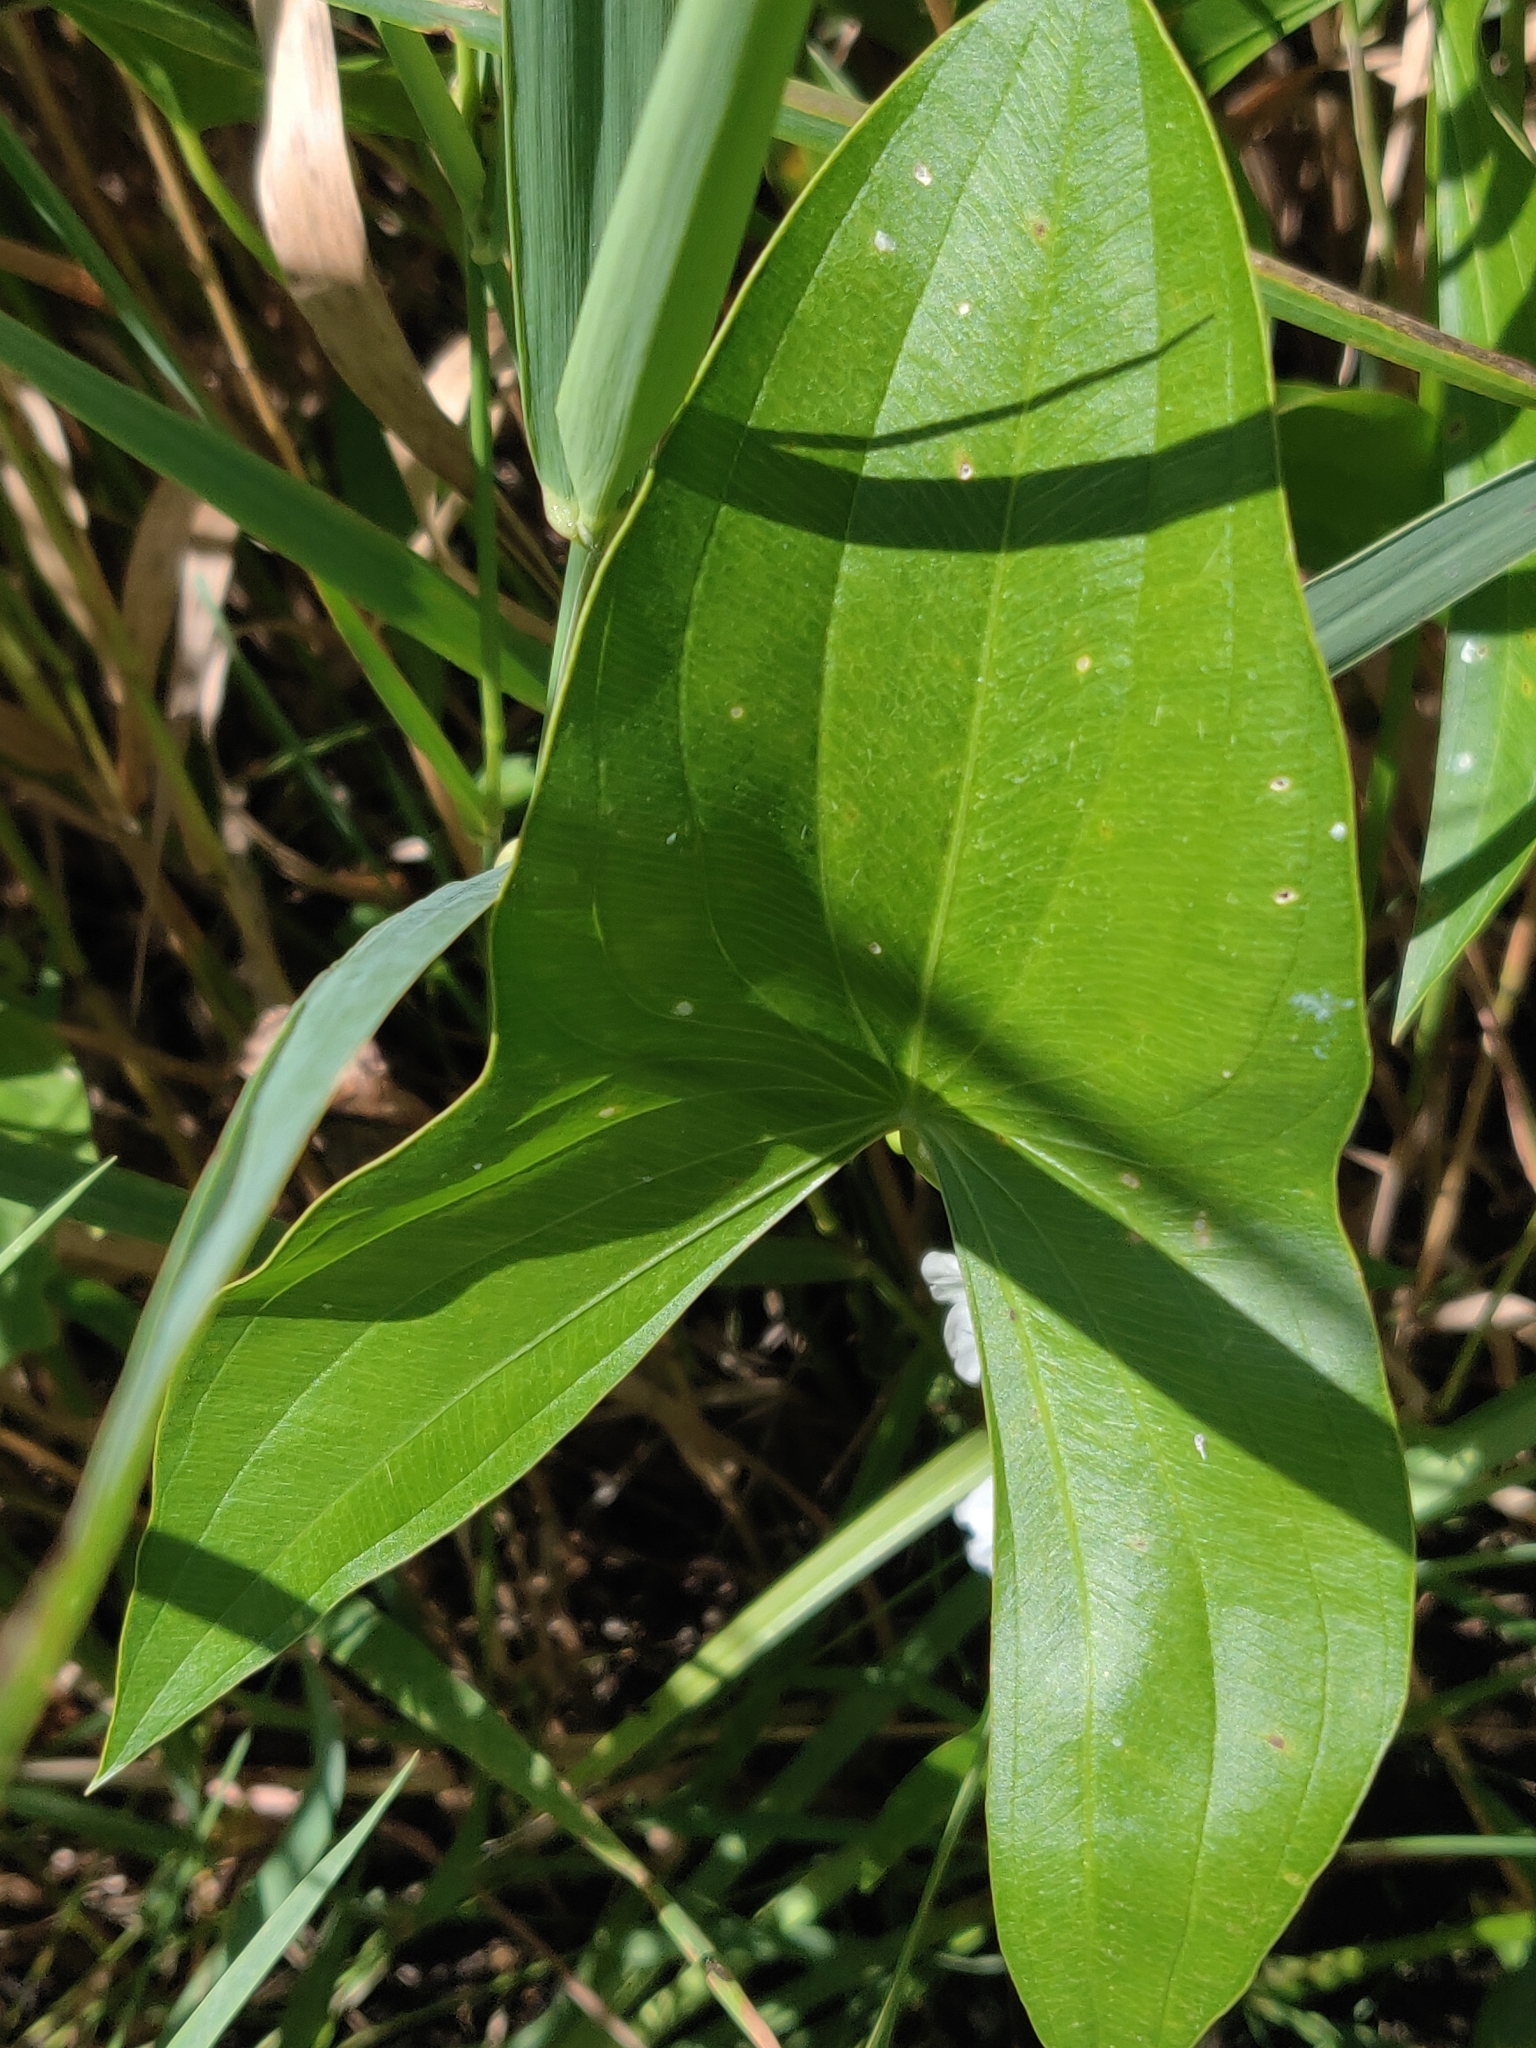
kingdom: Plantae
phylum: Tracheophyta
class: Liliopsida
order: Alismatales
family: Alismataceae
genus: Sagittaria
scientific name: Sagittaria latifolia
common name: Duck-potato
